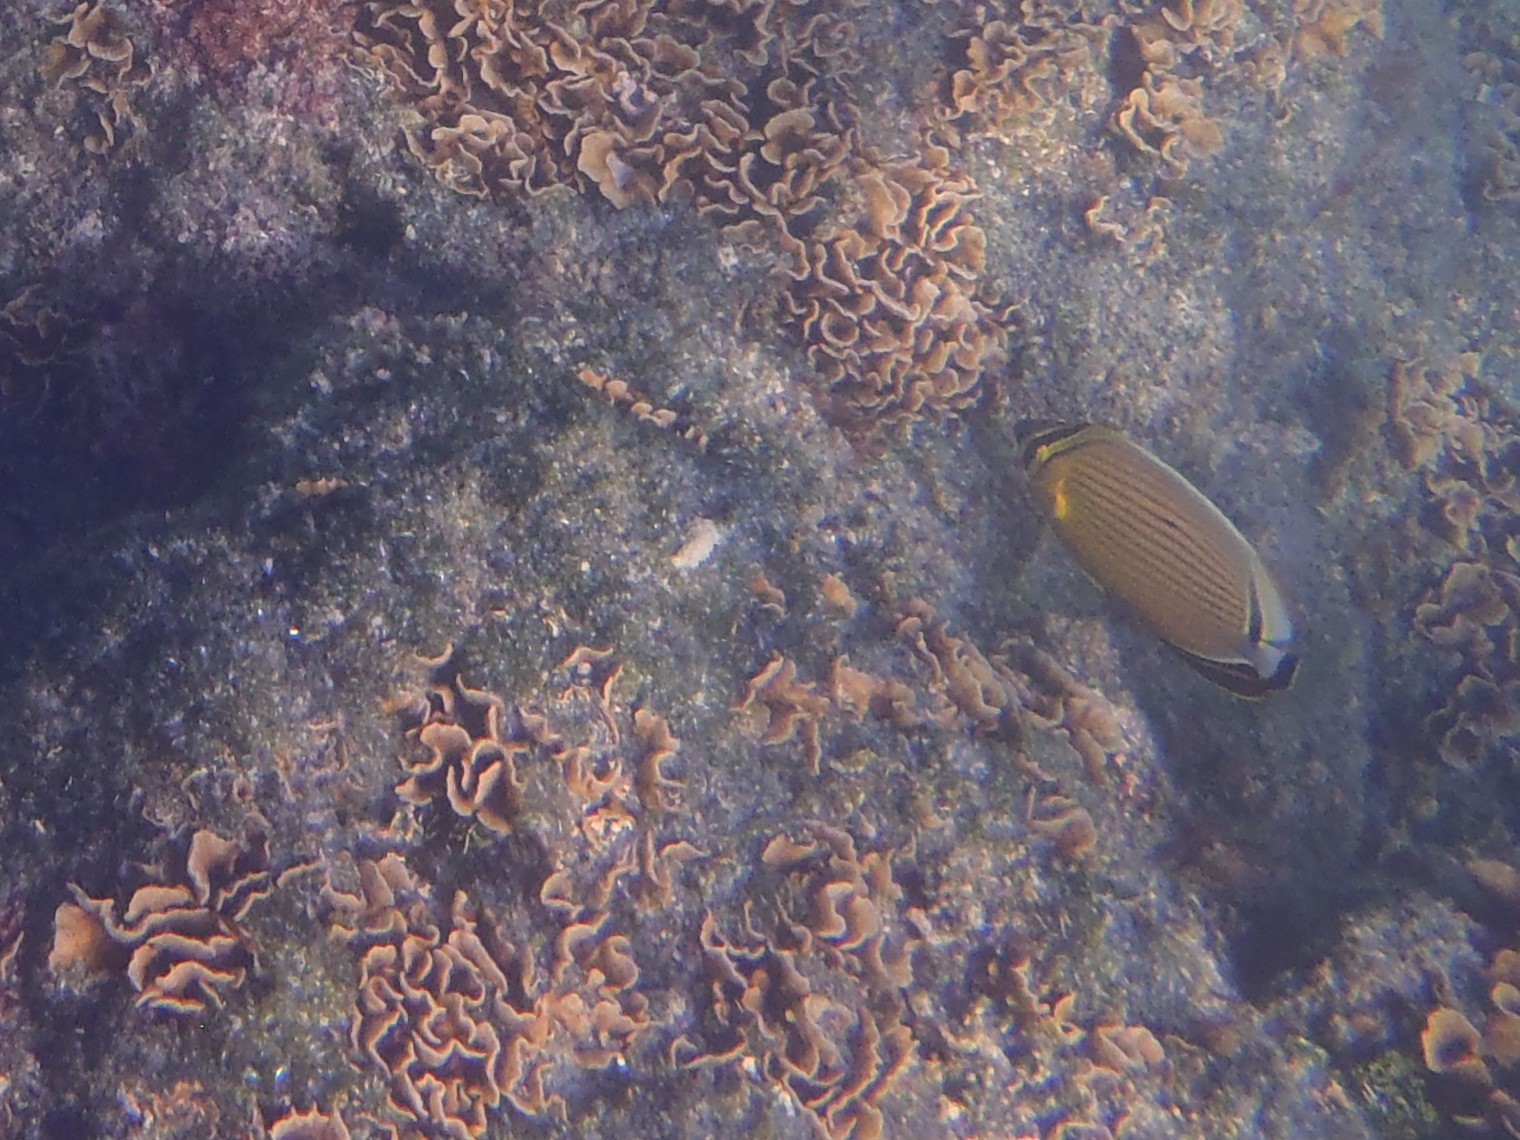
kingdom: Animalia
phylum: Chordata
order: Perciformes
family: Chaetodontidae
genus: Chaetodon
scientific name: Chaetodon lunulatus
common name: Redfin butterflyfish
